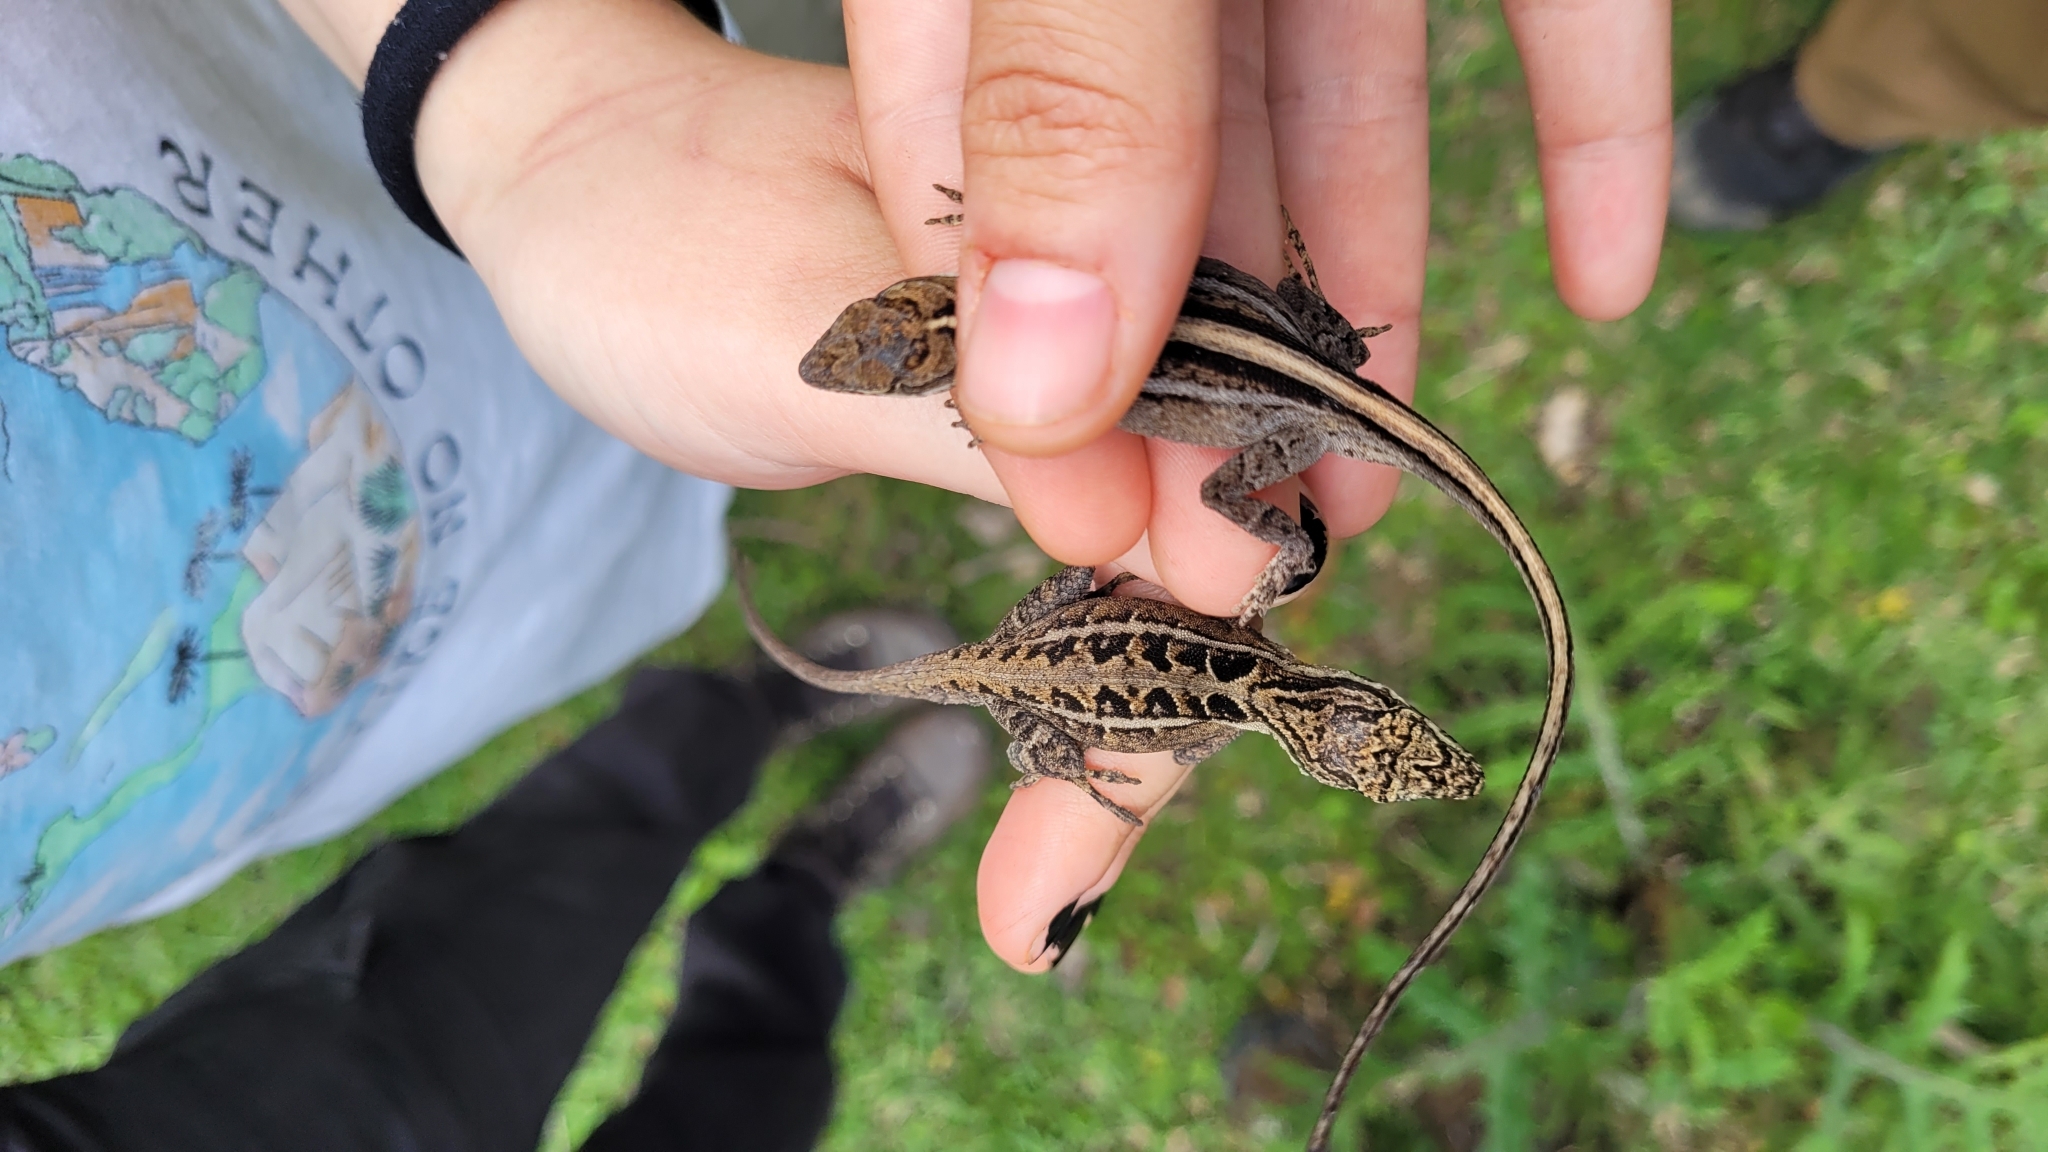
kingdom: Animalia
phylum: Chordata
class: Squamata
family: Dactyloidae
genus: Anolis
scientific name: Anolis caceresae
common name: Berta’s anole
